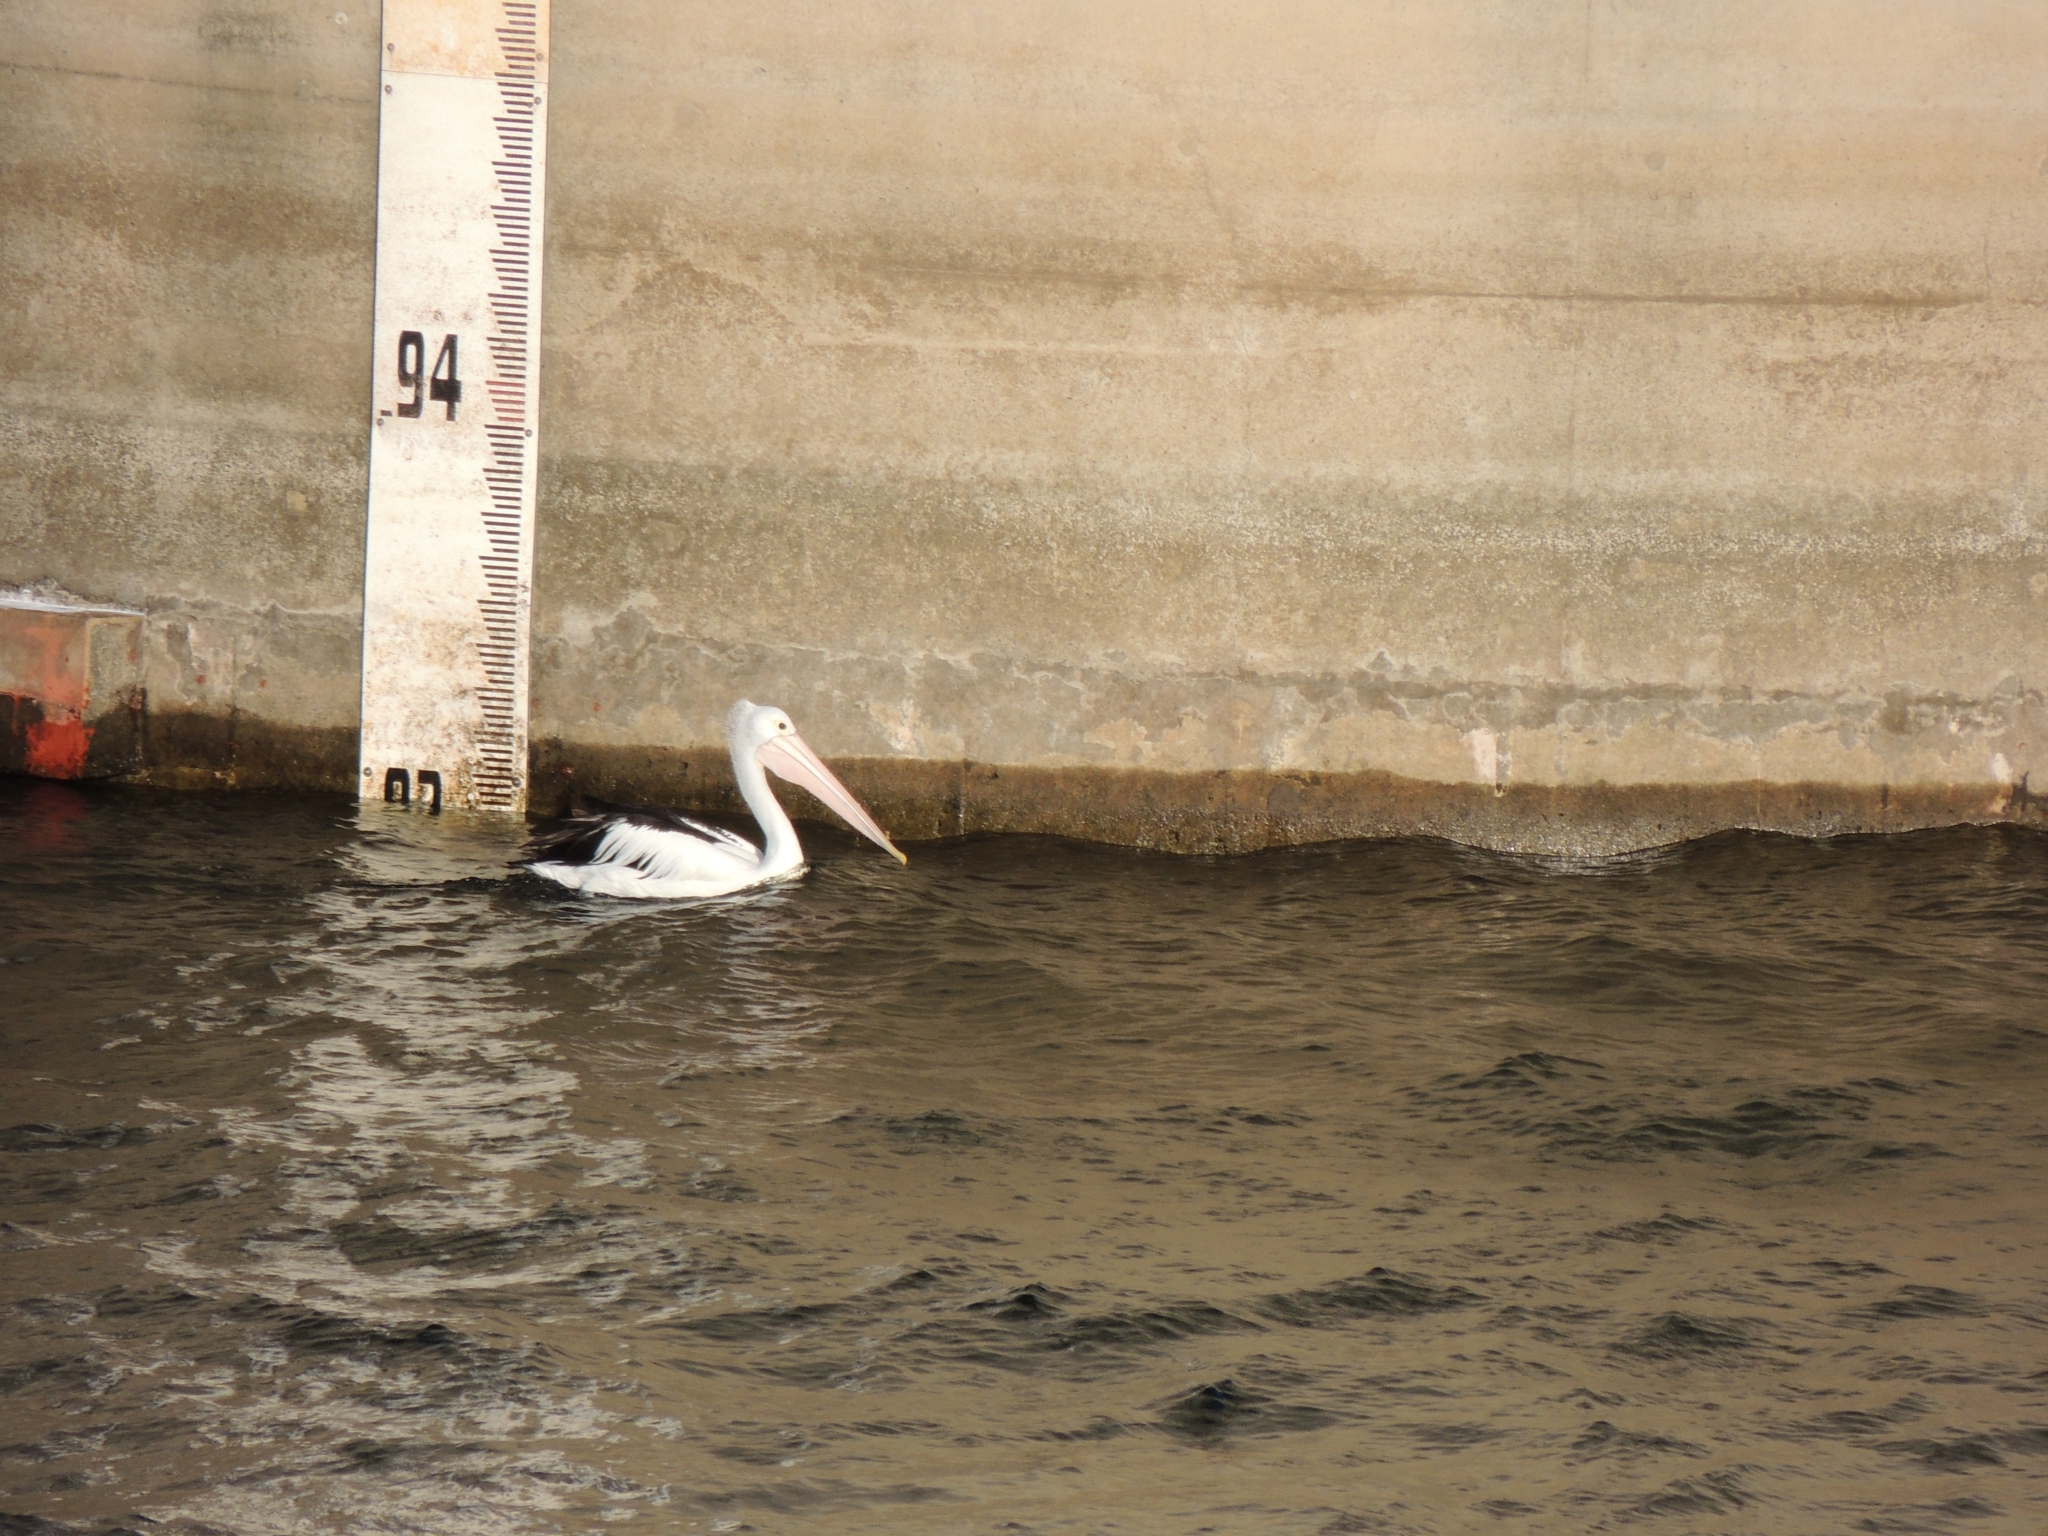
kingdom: Animalia
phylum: Chordata
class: Aves
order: Pelecaniformes
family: Pelecanidae
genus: Pelecanus
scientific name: Pelecanus conspicillatus
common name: Australian pelican
